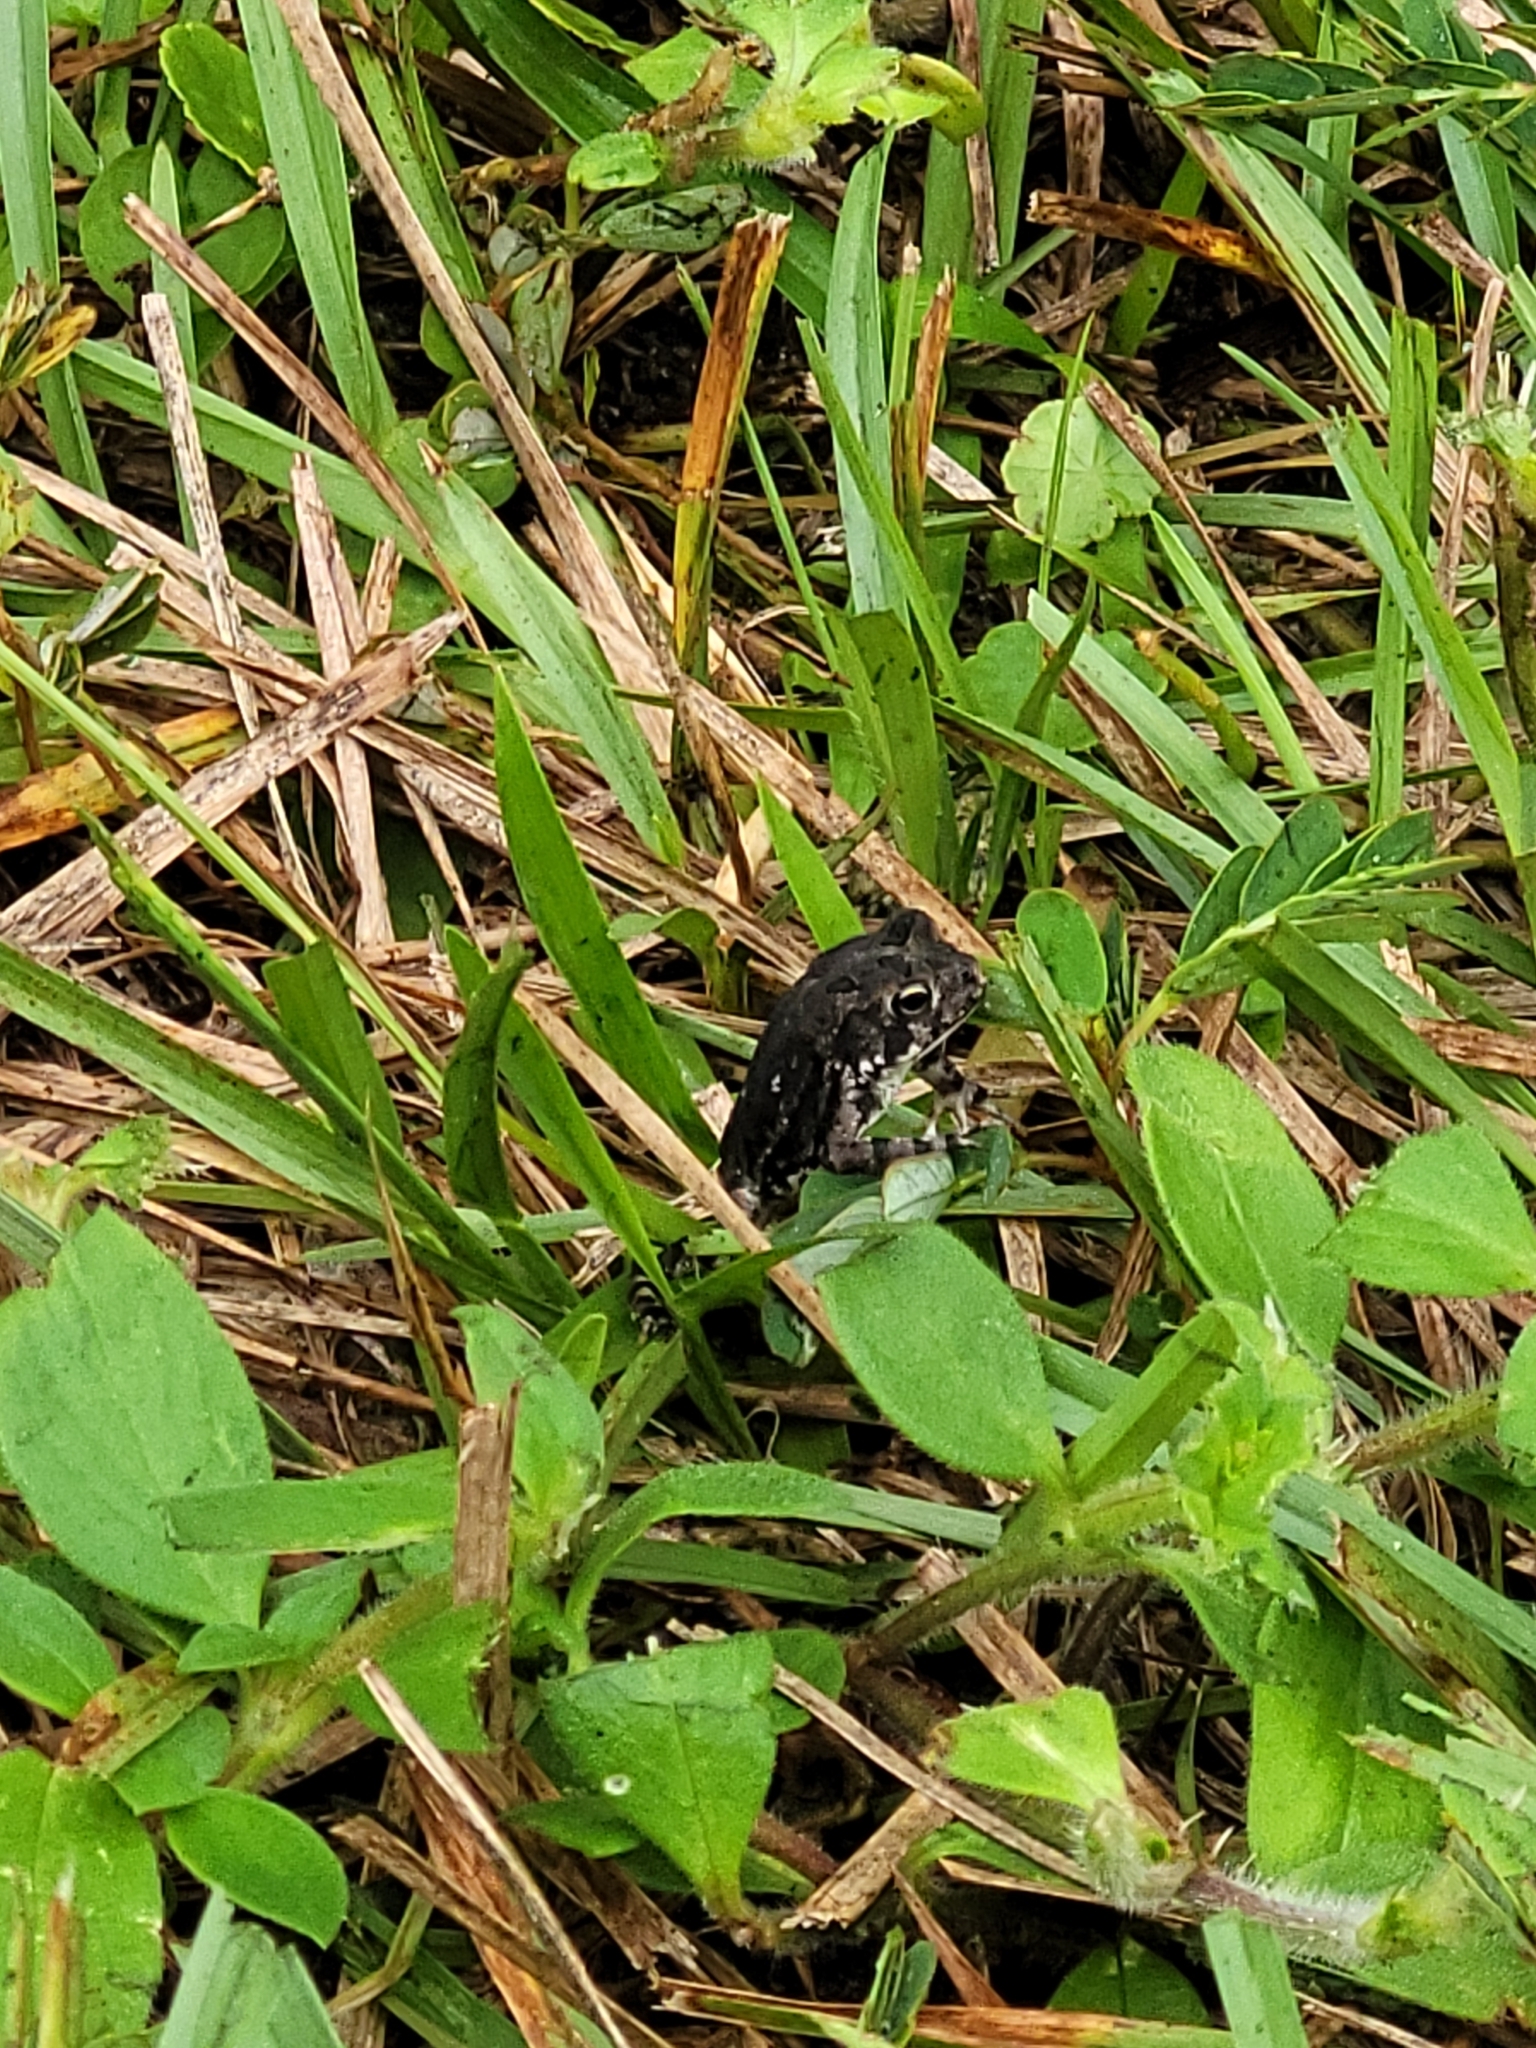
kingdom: Animalia
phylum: Chordata
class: Amphibia
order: Anura
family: Bufonidae
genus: Anaxyrus
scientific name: Anaxyrus terrestris
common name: Southern toad
